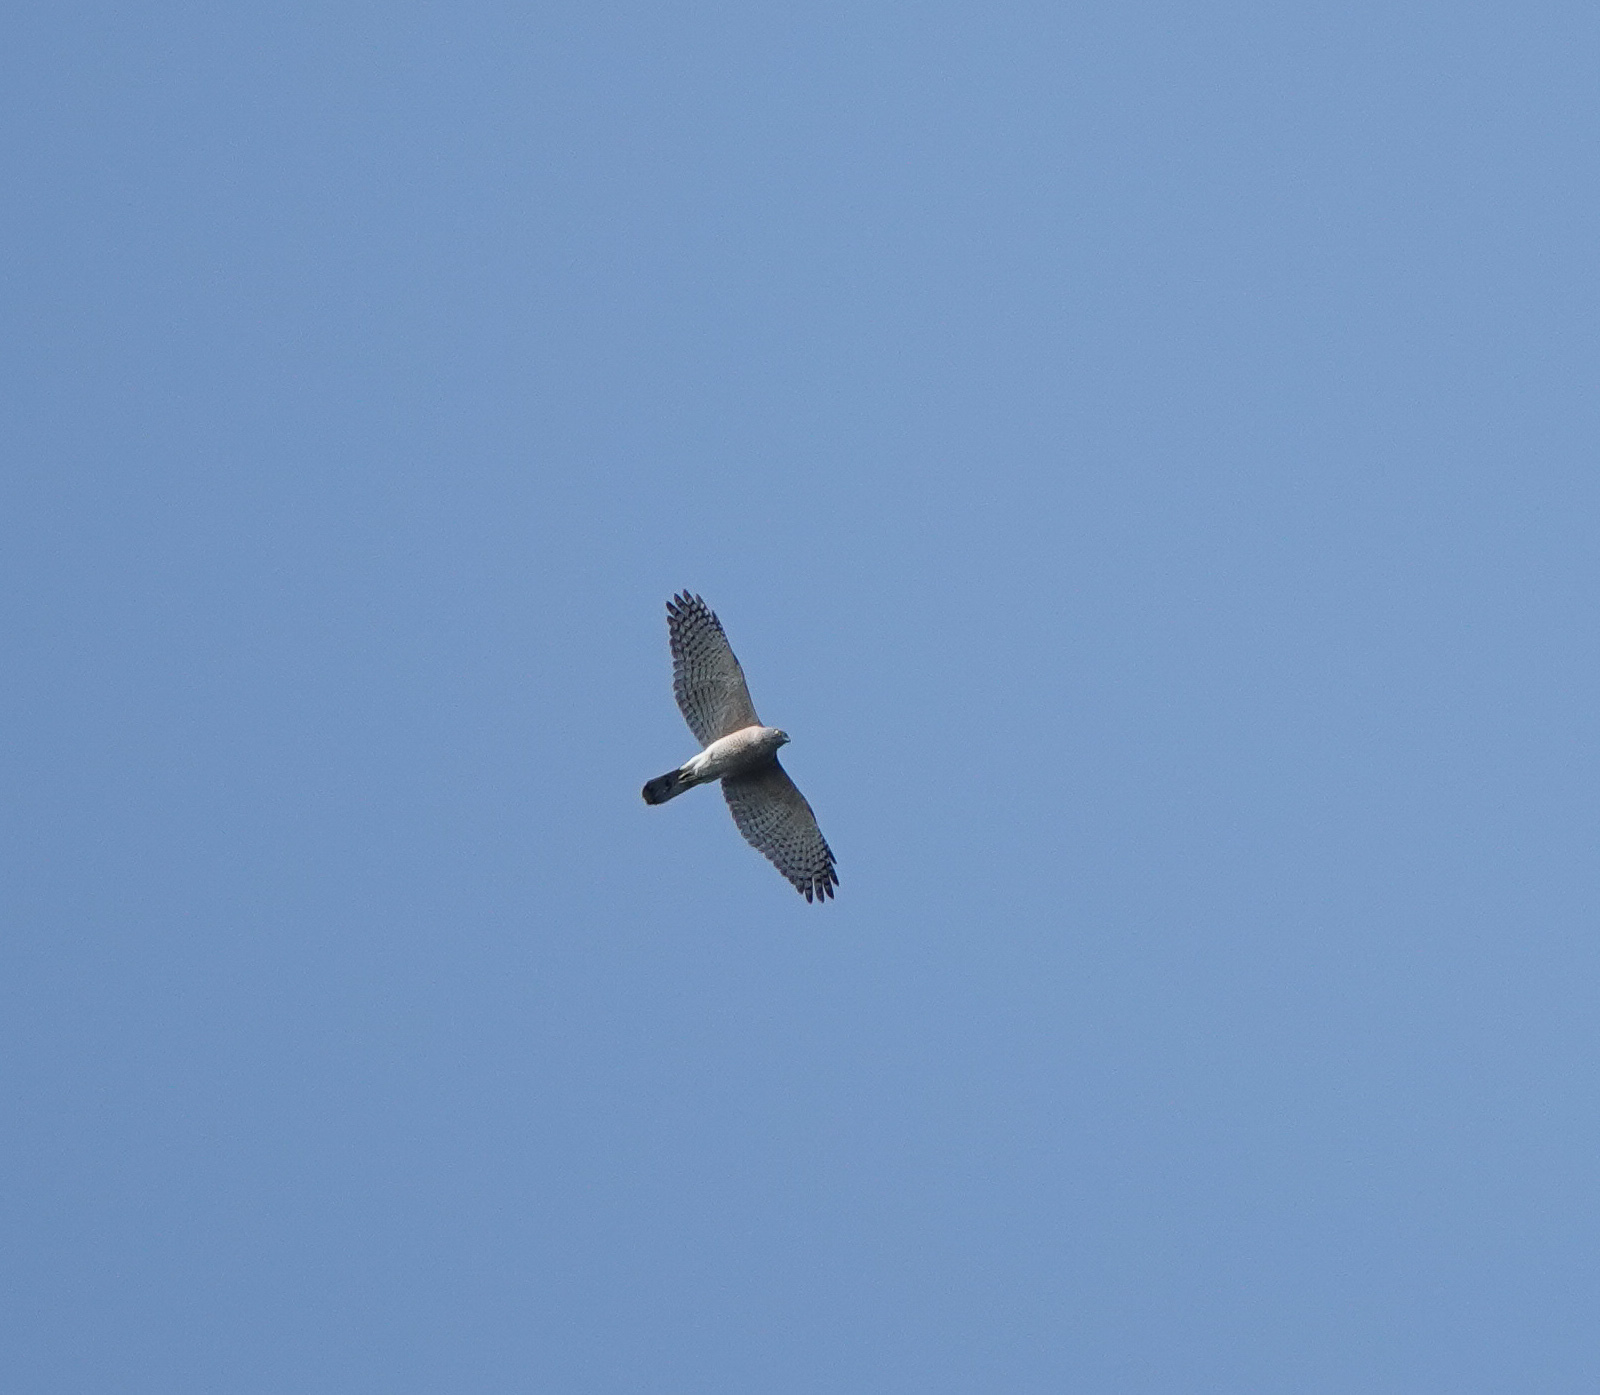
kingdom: Animalia
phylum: Chordata
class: Aves
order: Accipitriformes
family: Accipitridae
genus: Accipiter
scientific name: Accipiter badius
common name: Shikra
